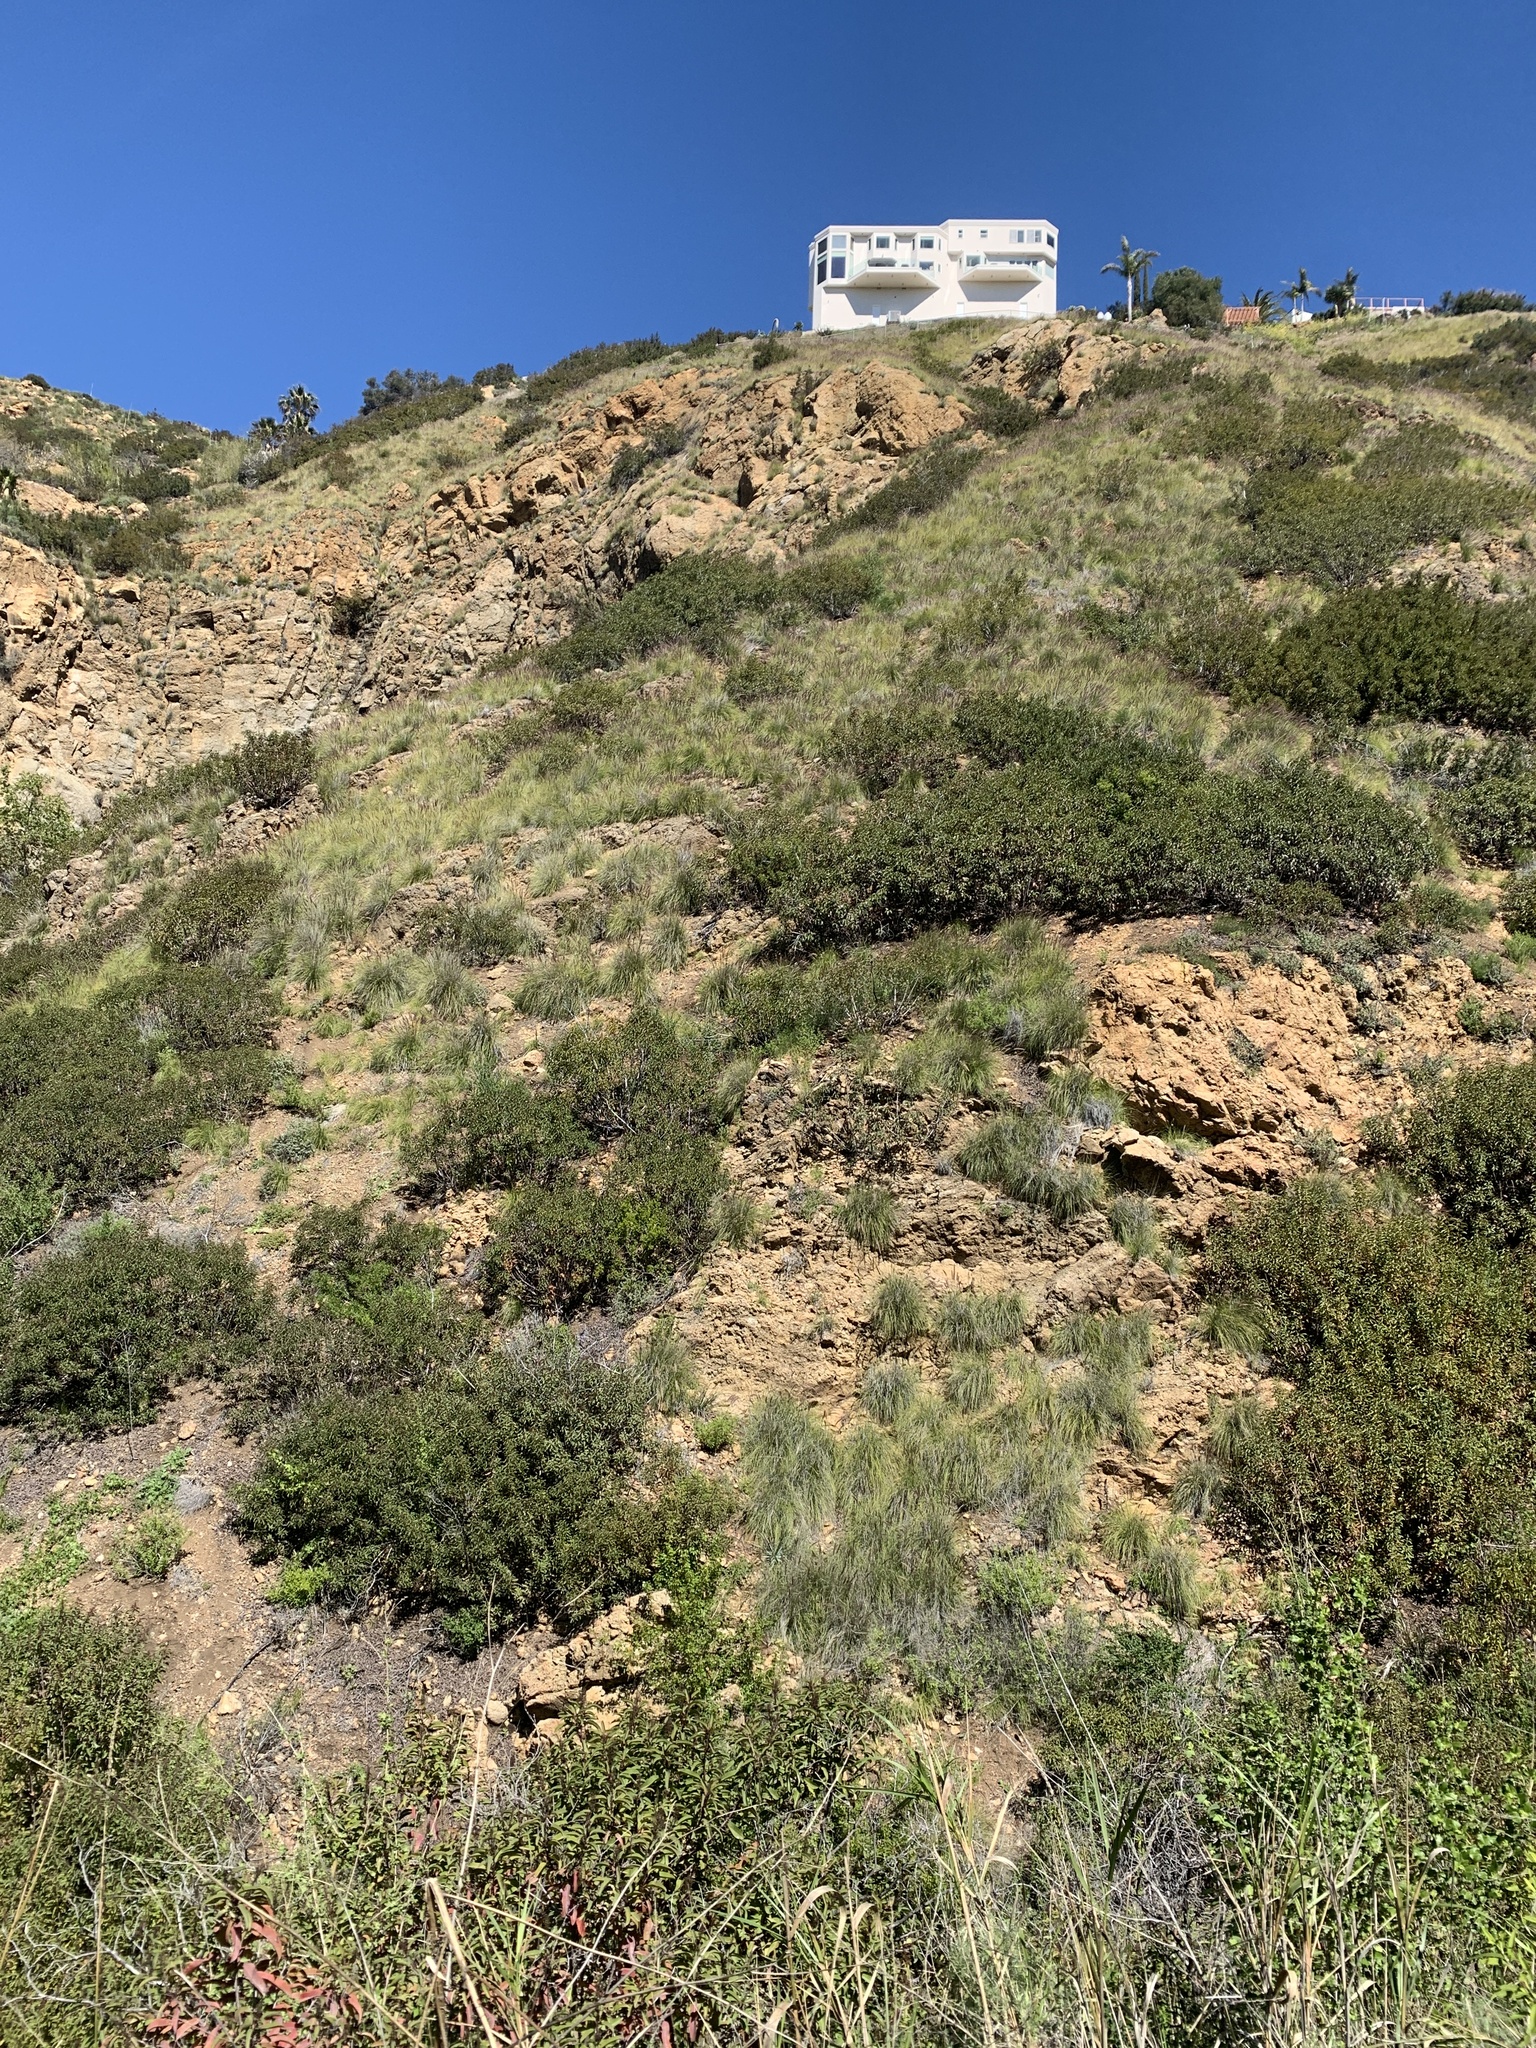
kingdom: Plantae
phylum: Tracheophyta
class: Liliopsida
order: Poales
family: Poaceae
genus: Cenchrus
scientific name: Cenchrus setaceus
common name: Crimson fountaingrass
